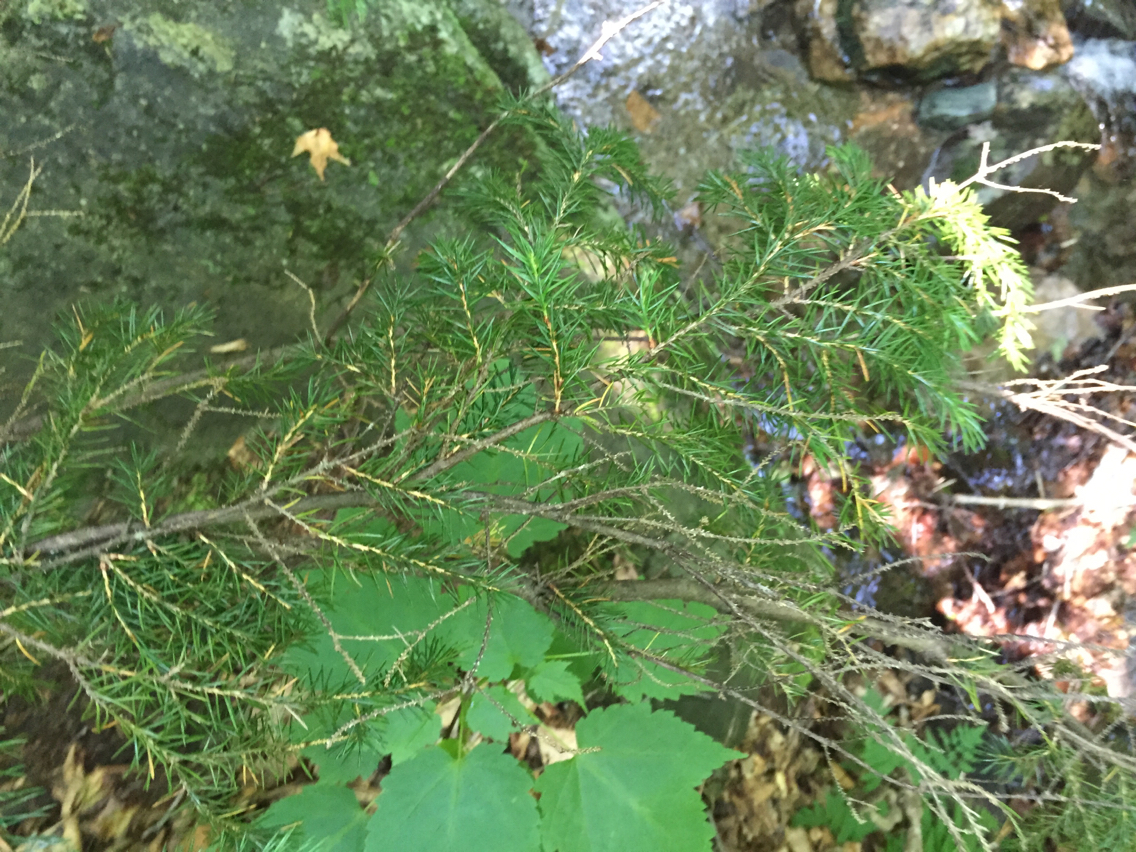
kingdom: Plantae
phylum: Tracheophyta
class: Pinopsida
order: Pinales
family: Pinaceae
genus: Picea
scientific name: Picea rubens
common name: Red spruce
